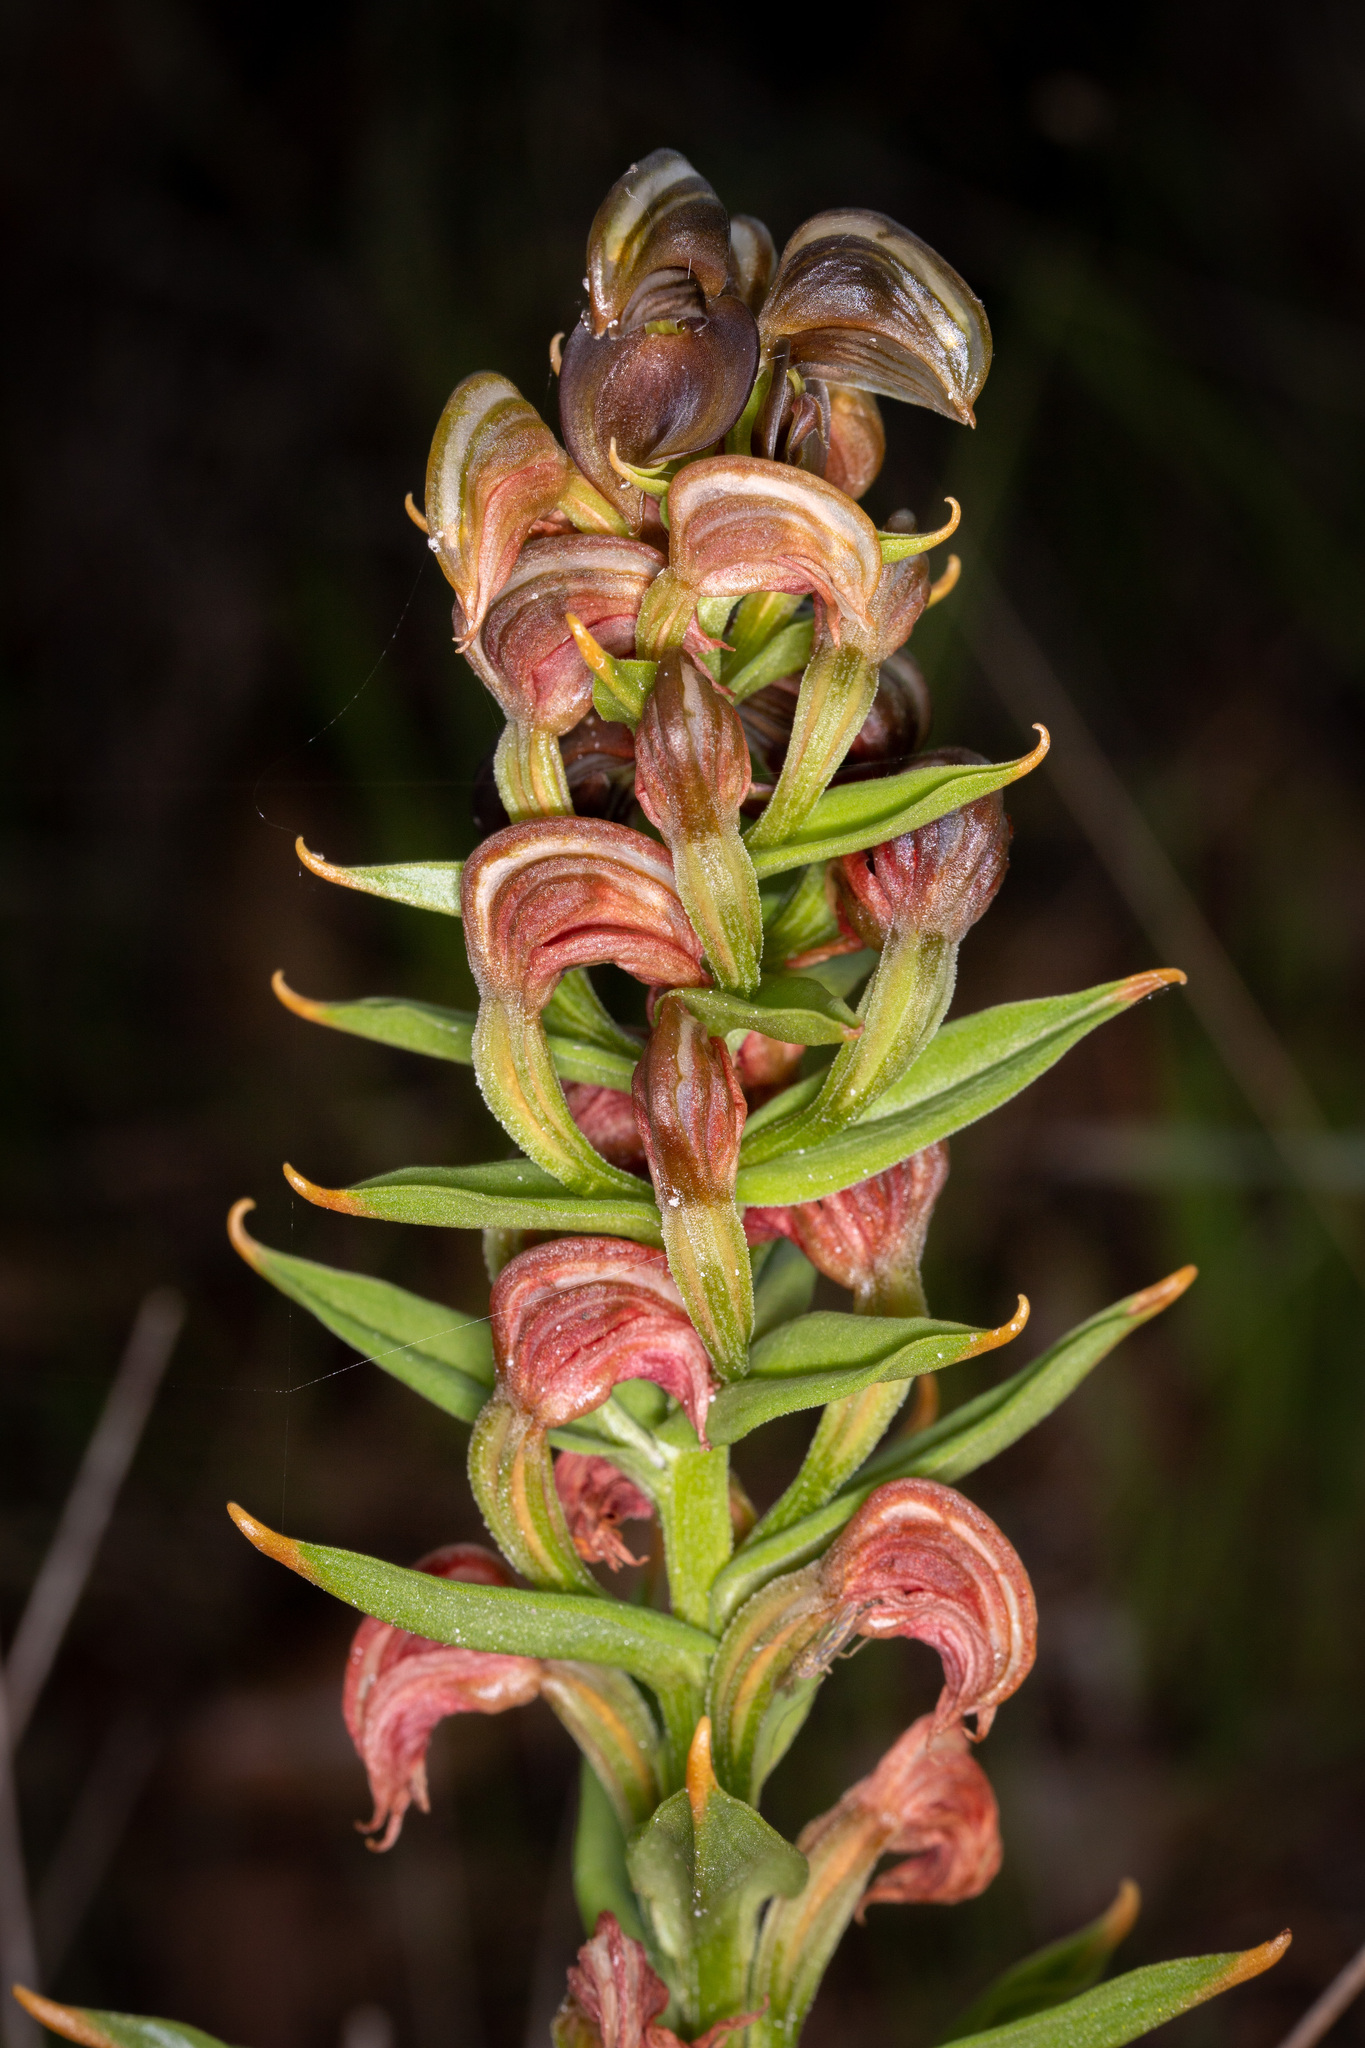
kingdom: Plantae
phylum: Tracheophyta
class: Liliopsida
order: Asparagales
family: Orchidaceae
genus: Pterostylis
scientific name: Pterostylis atrosanguinea
